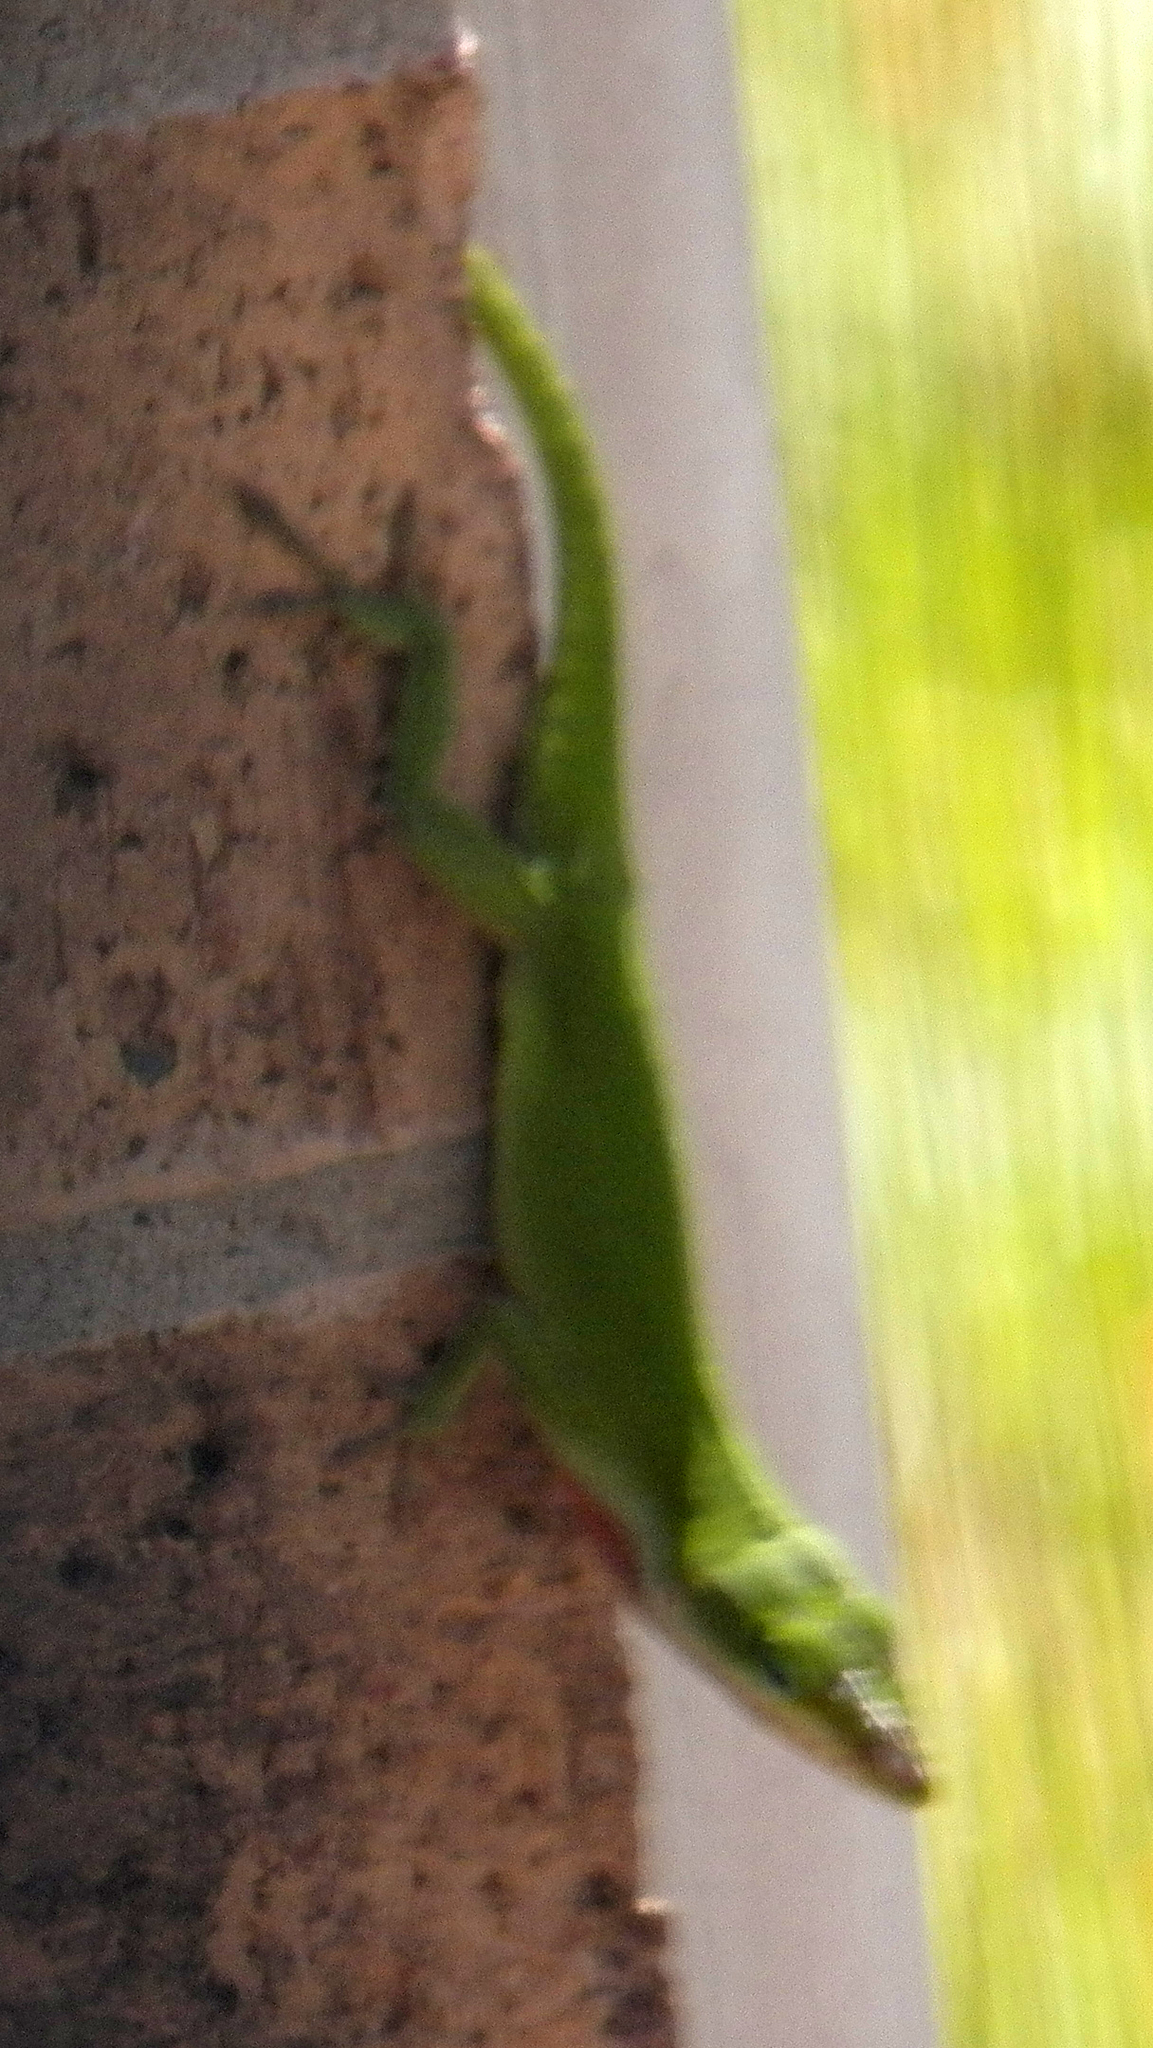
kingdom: Animalia
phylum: Chordata
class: Squamata
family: Dactyloidae
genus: Anolis
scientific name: Anolis carolinensis
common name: Green anole
